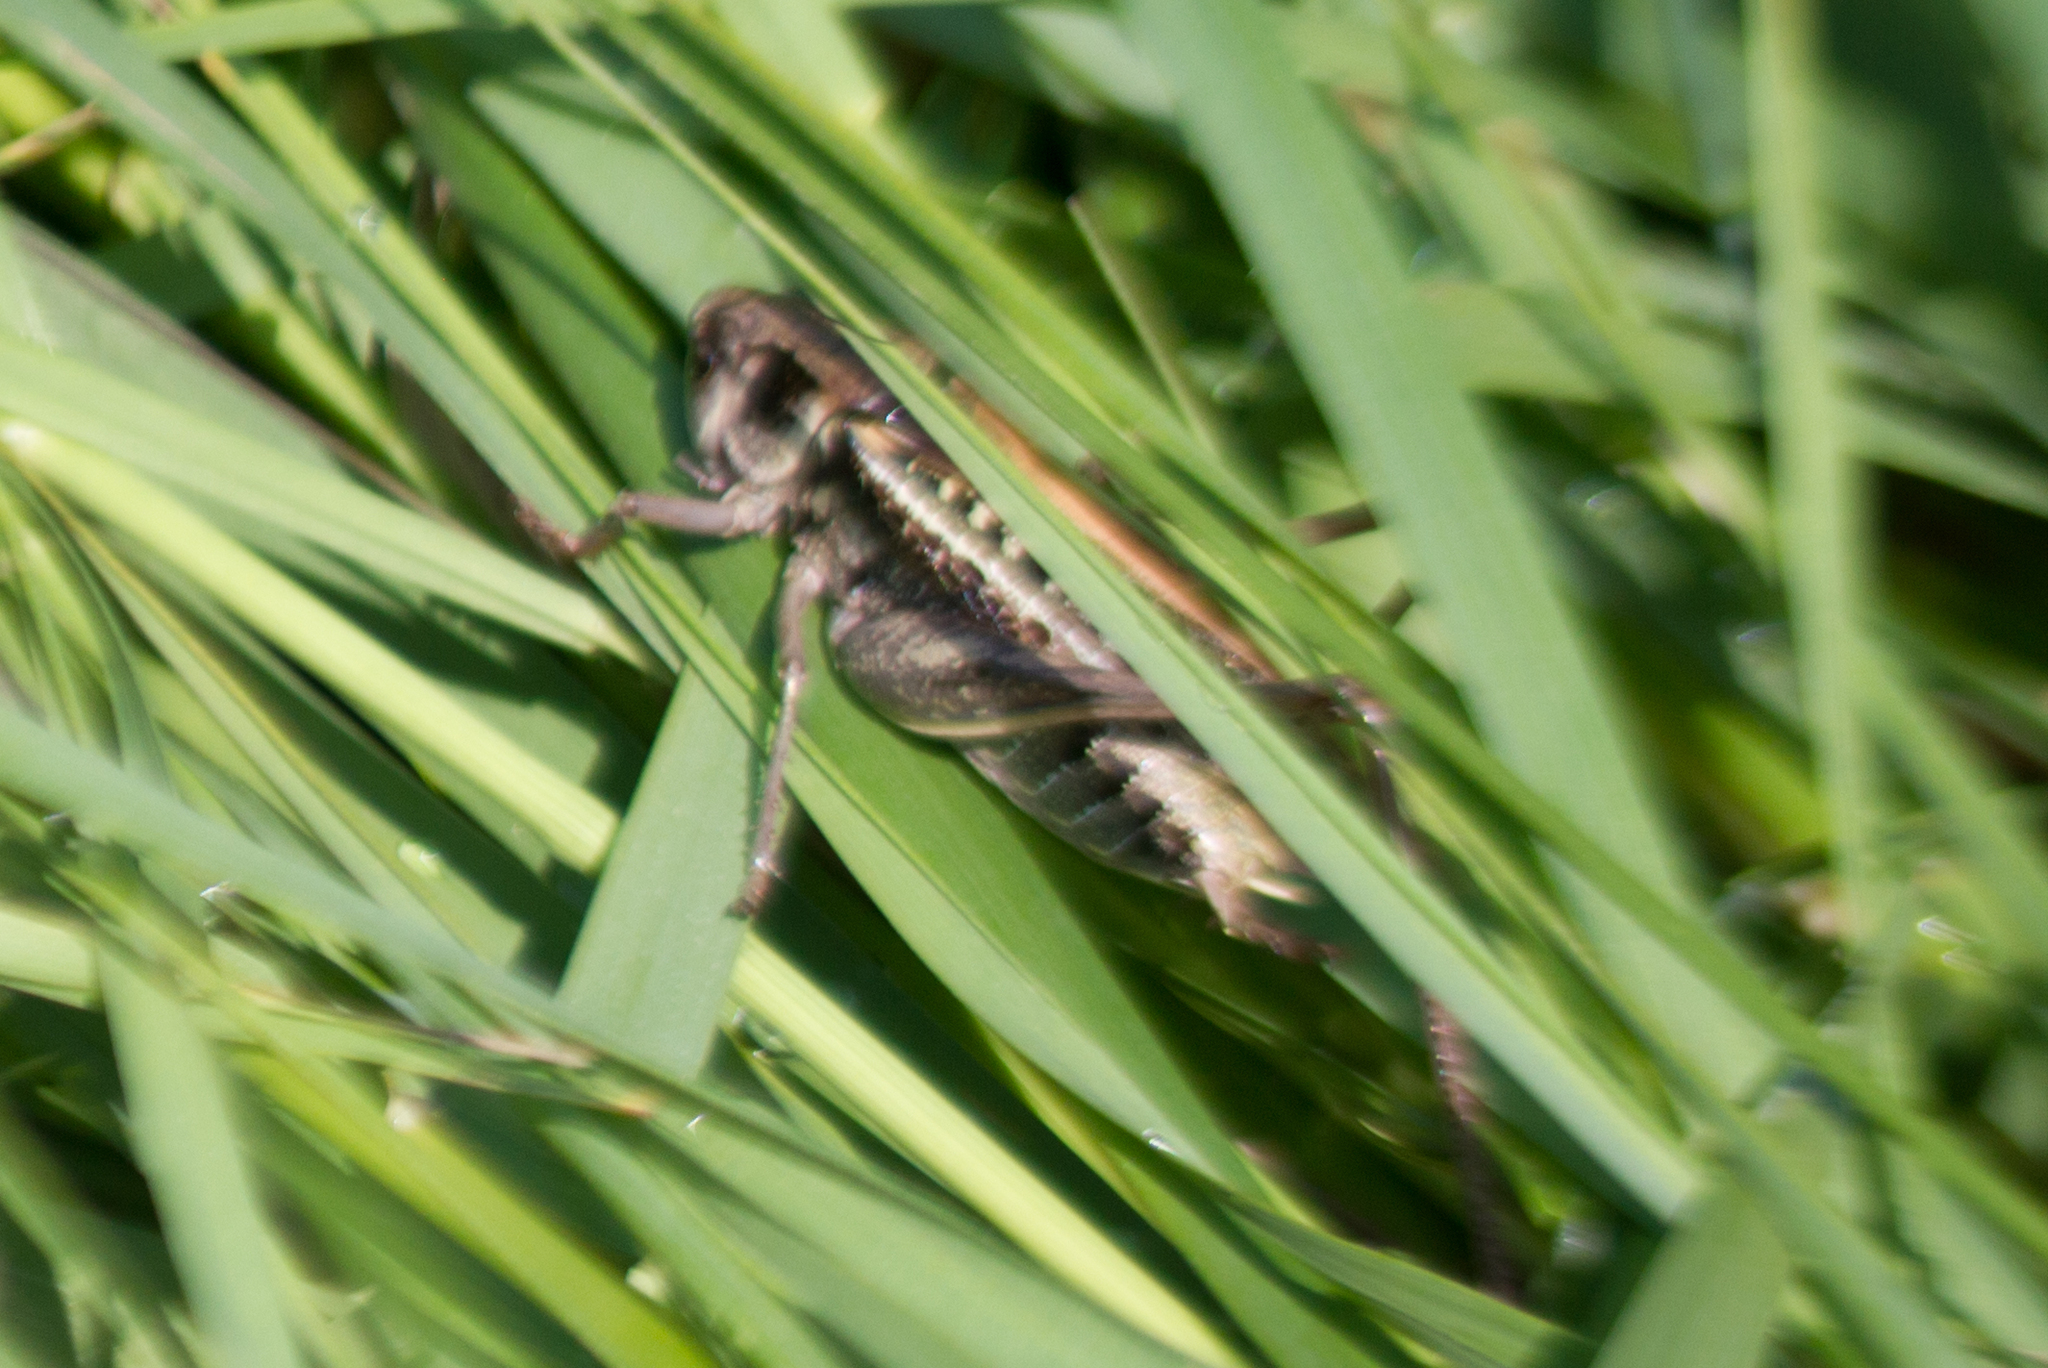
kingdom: Animalia
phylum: Arthropoda
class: Insecta
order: Orthoptera
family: Tettigoniidae
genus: Decticus
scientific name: Decticus verrucivorus
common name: Wart-biter
